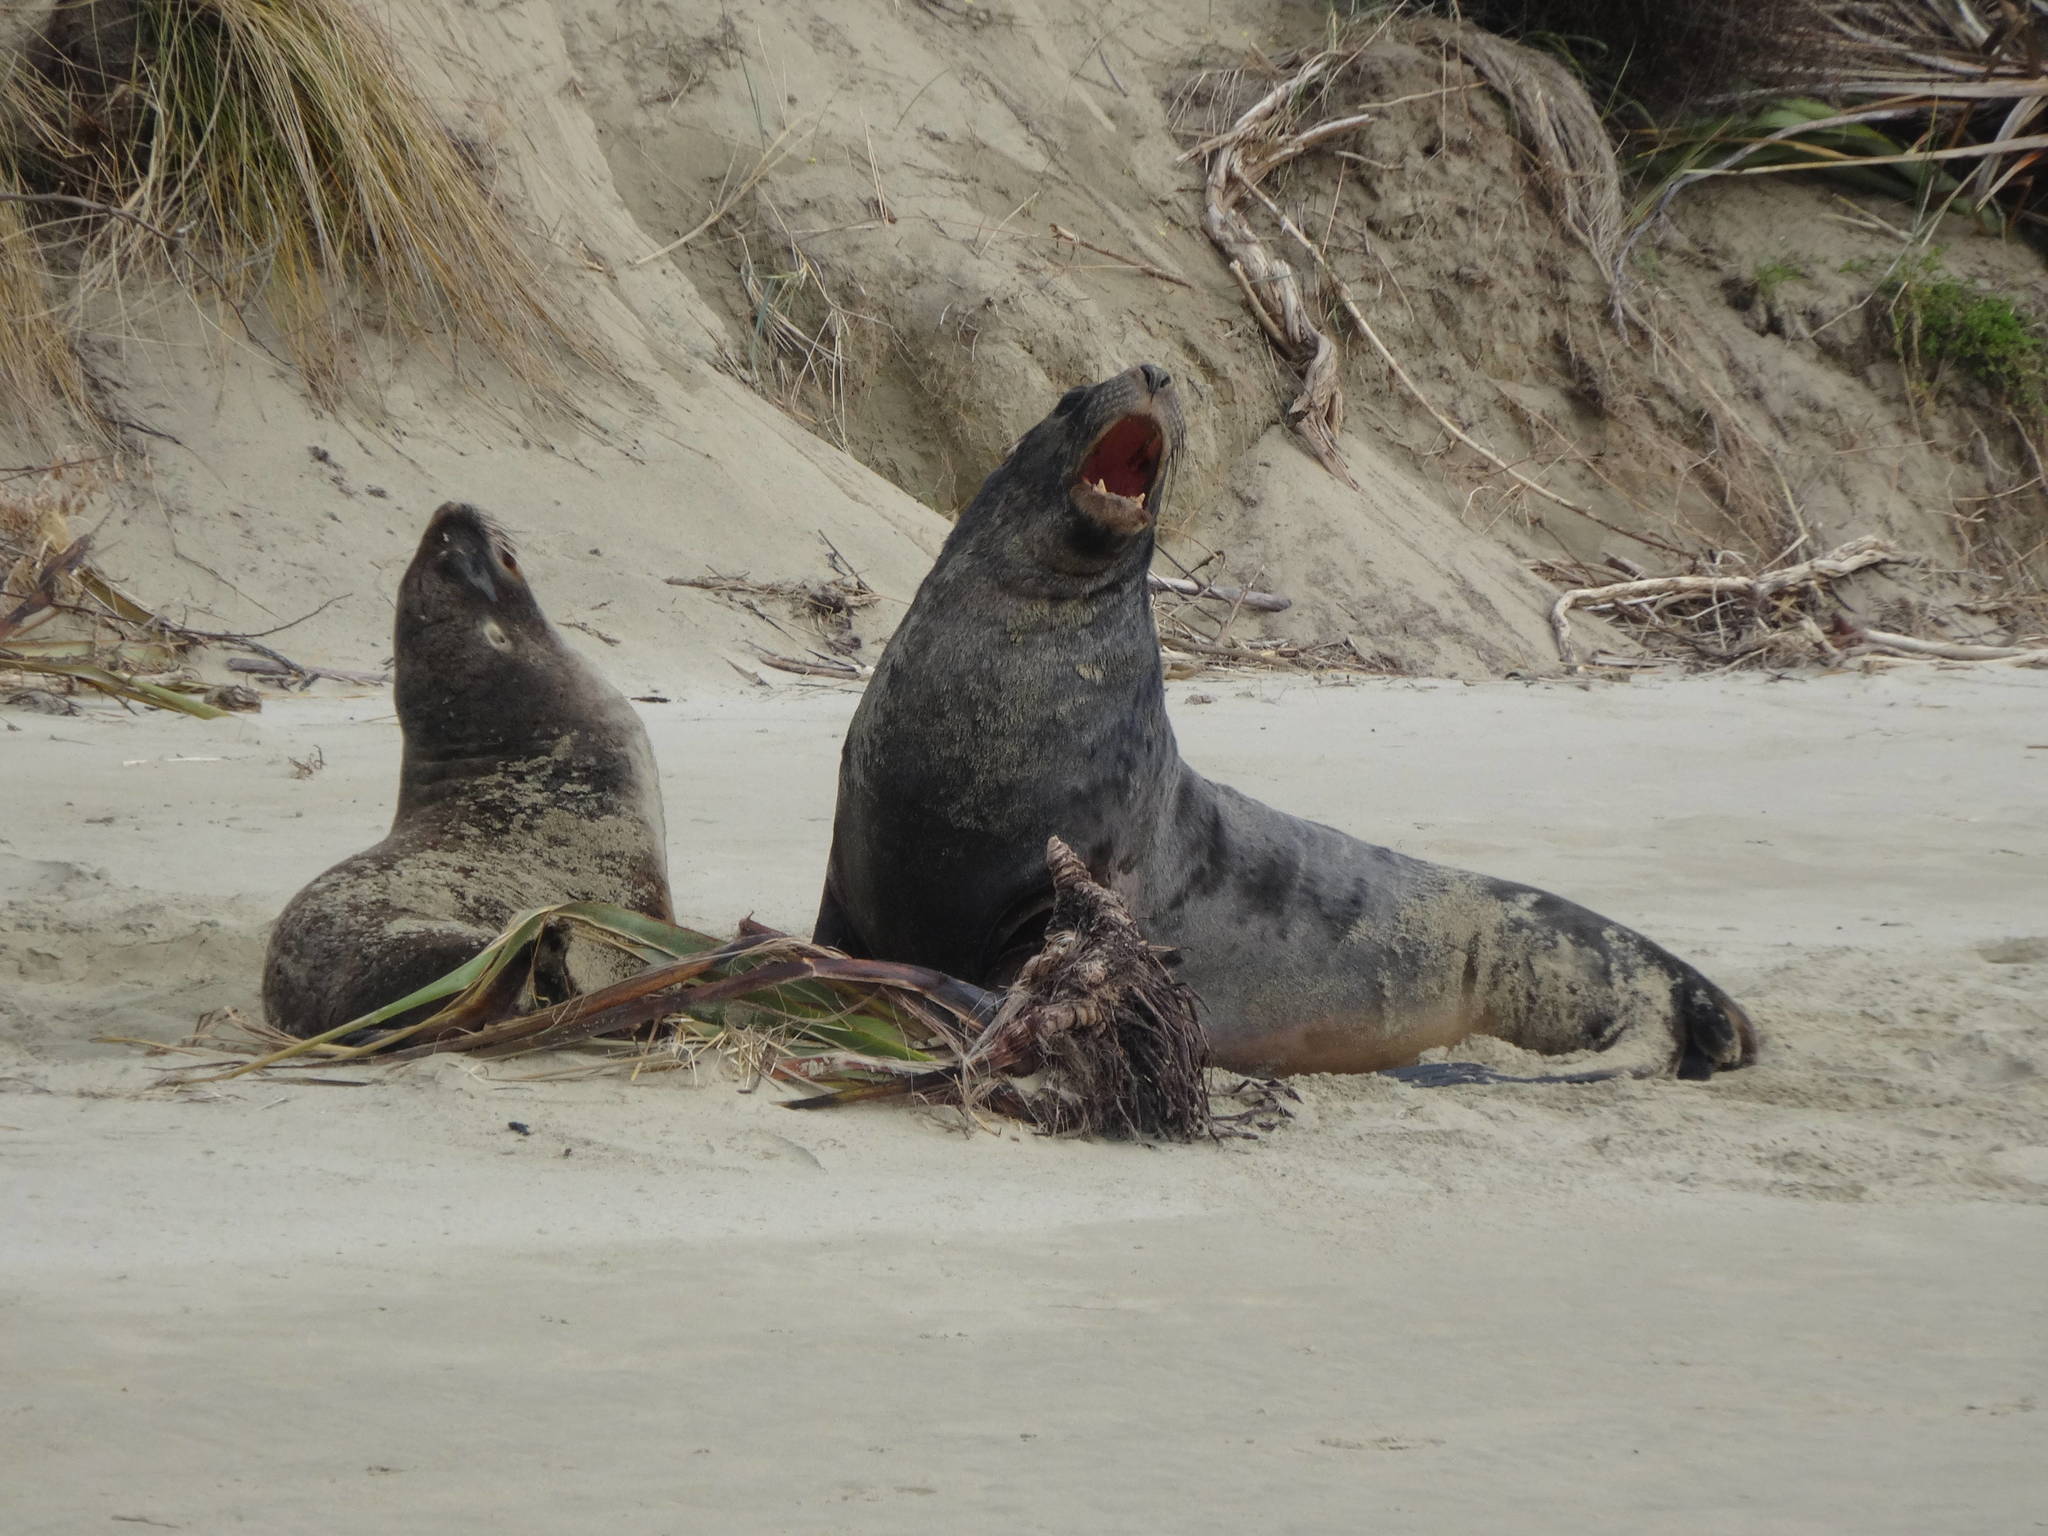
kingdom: Animalia
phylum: Chordata
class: Mammalia
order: Carnivora
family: Otariidae
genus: Phocarctos
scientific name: Phocarctos hookeri
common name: New zealand sea lion
